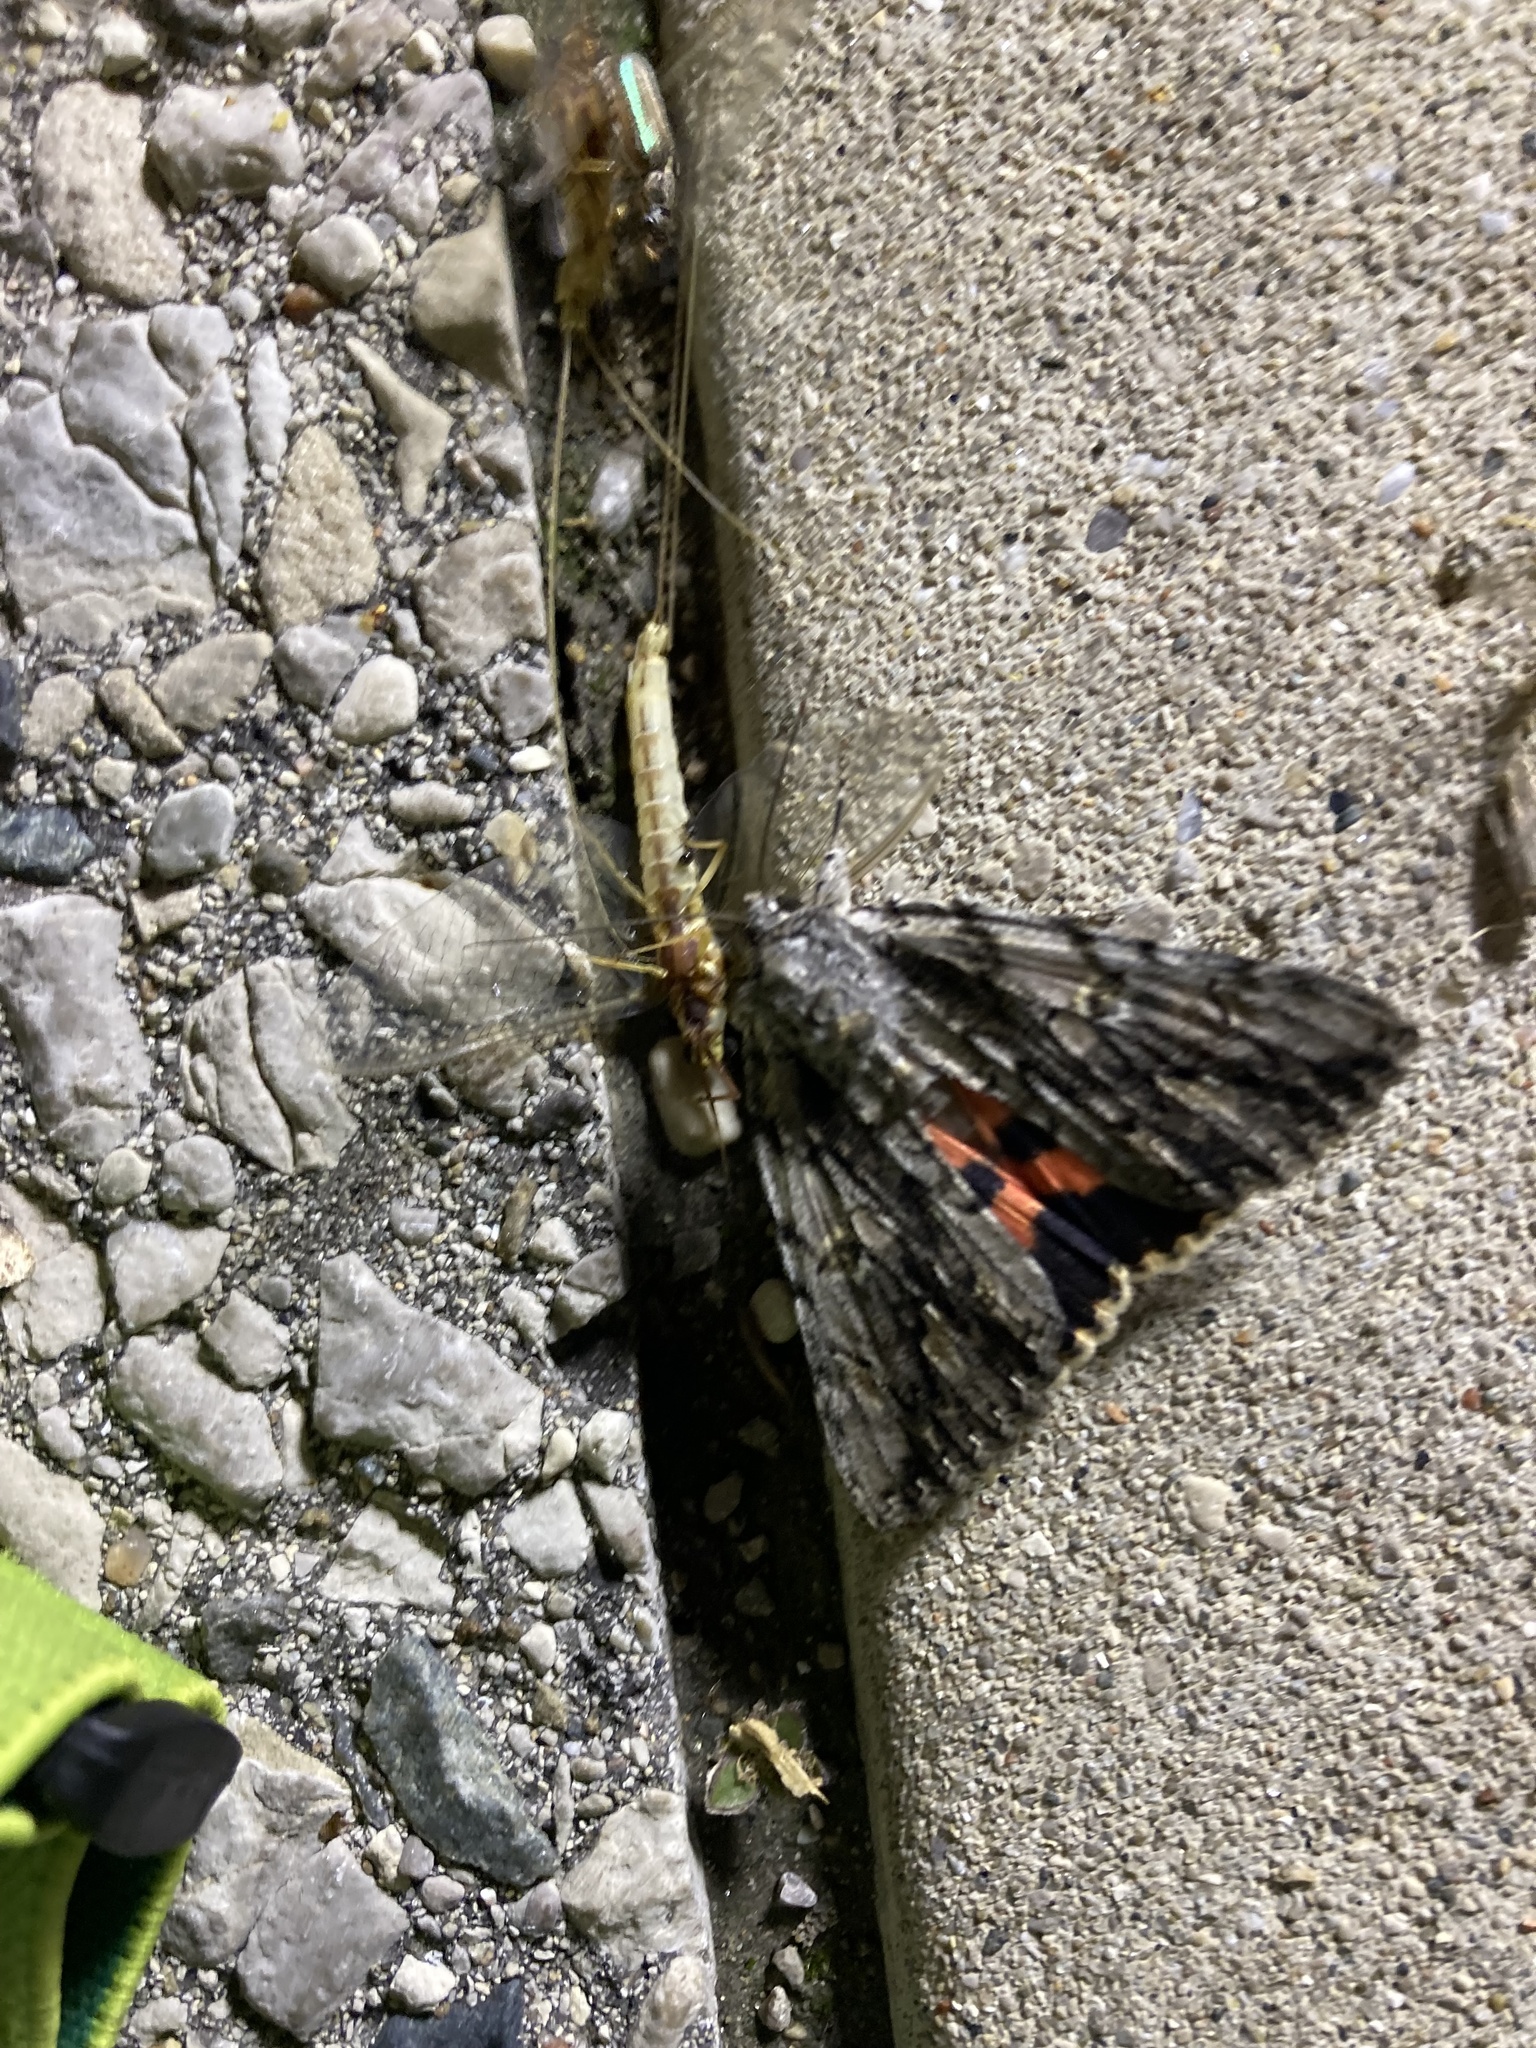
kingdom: Animalia
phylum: Arthropoda
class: Insecta
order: Lepidoptera
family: Erebidae
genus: Catocala
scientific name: Catocala coccinata
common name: Scarlet underwing
